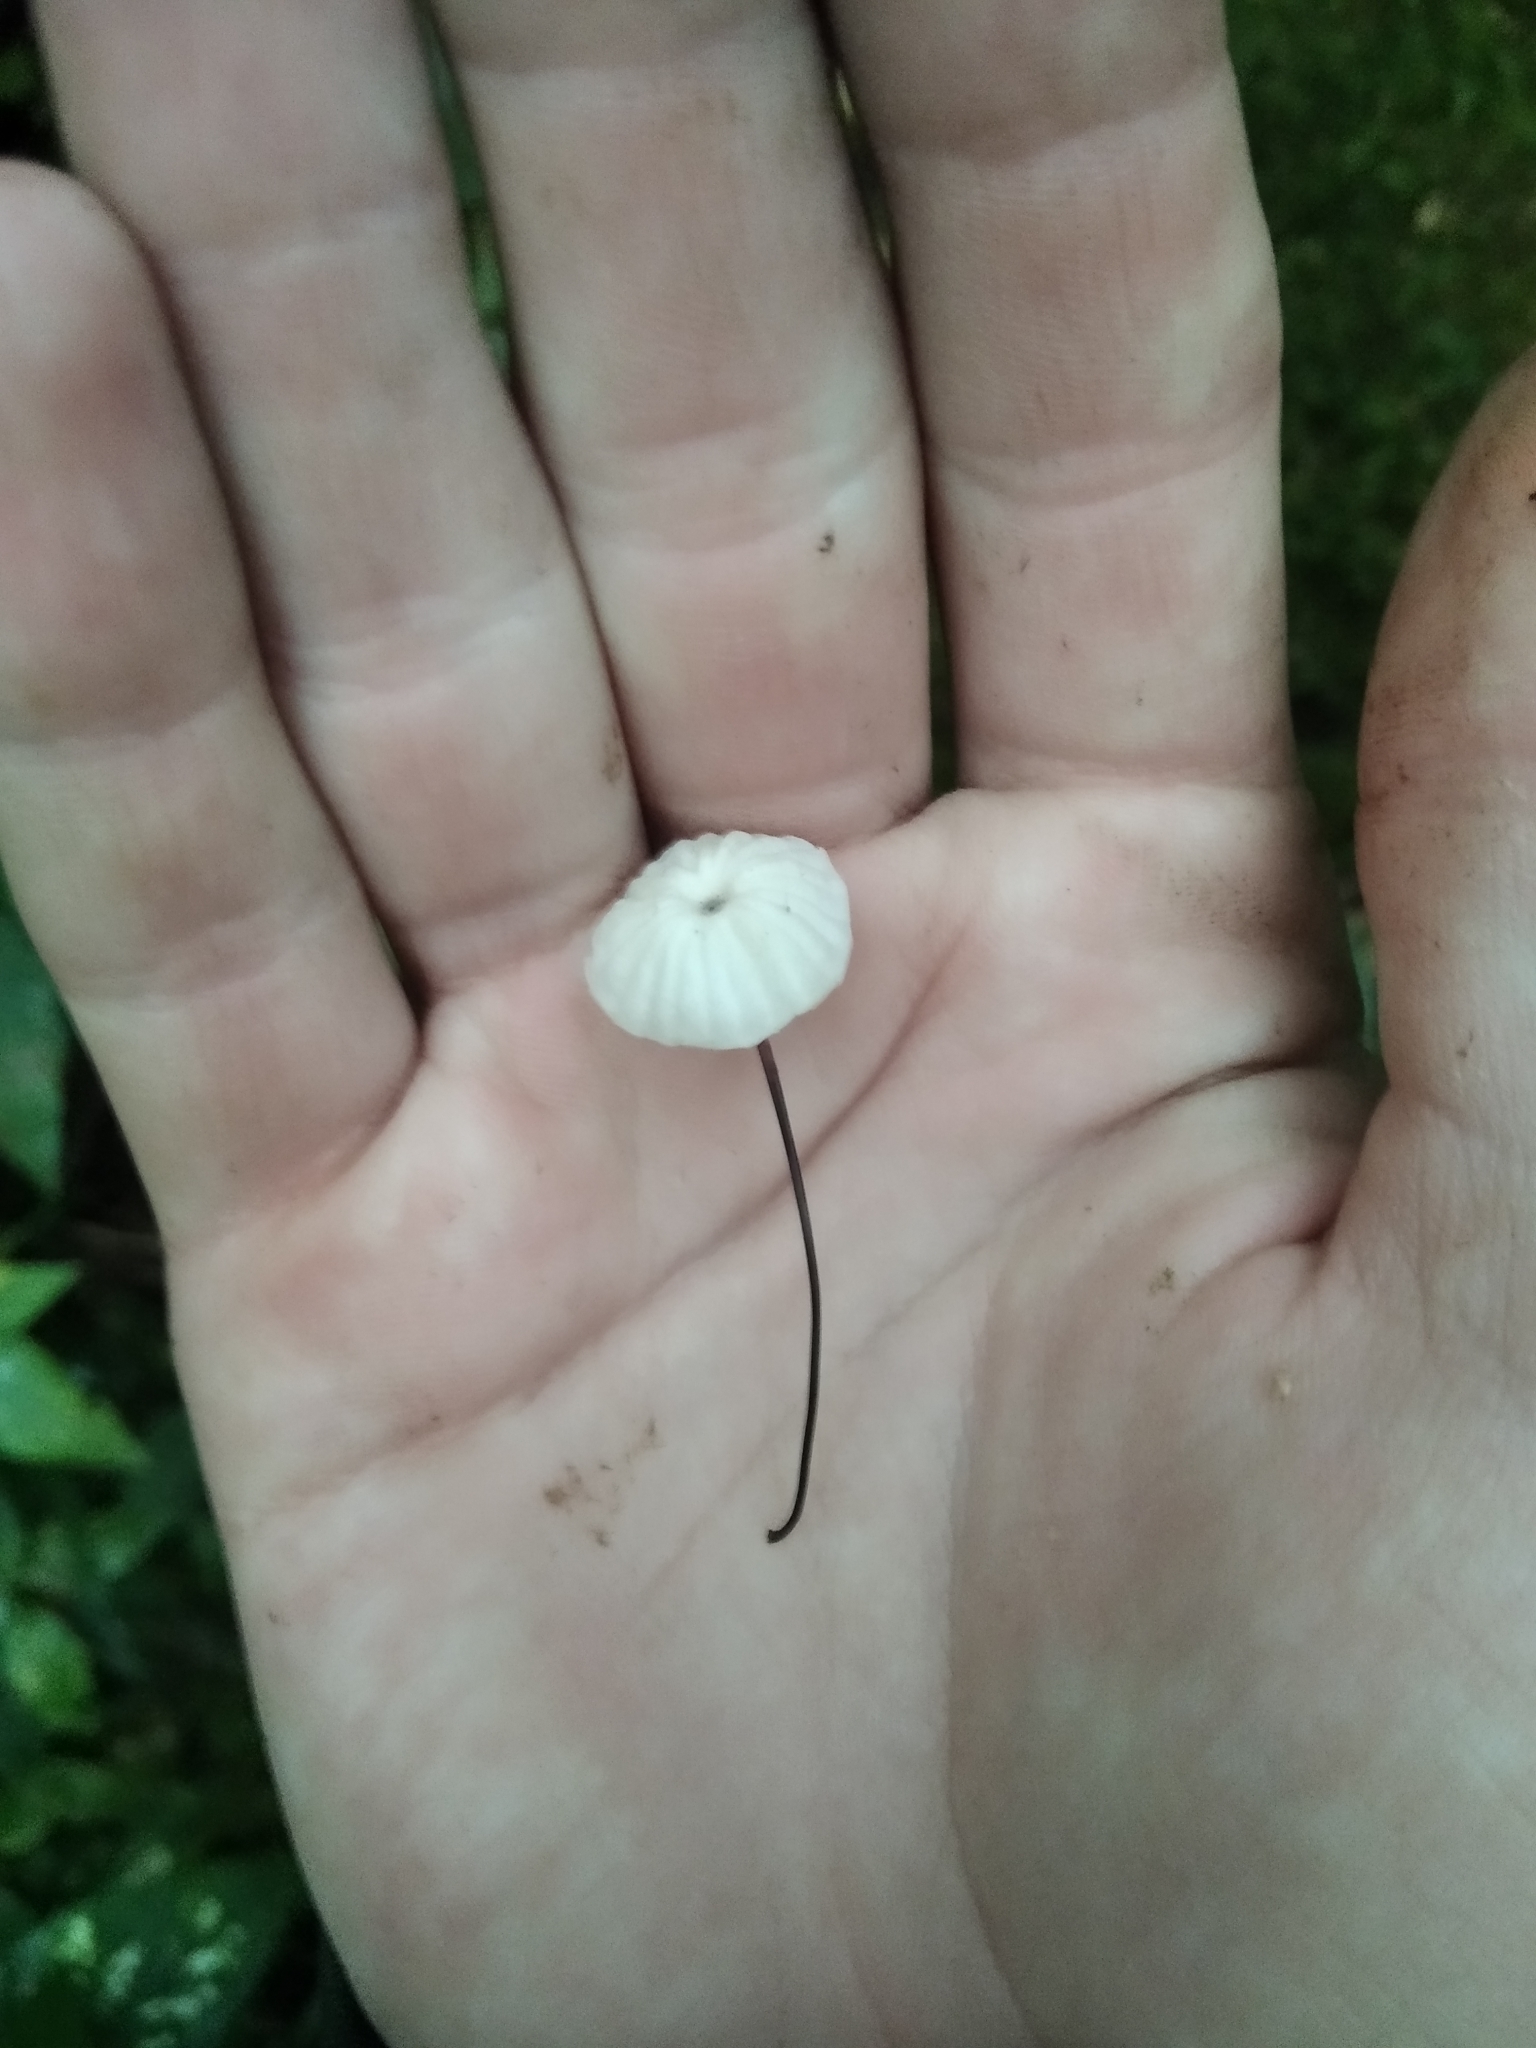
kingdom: Fungi
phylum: Basidiomycota
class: Agaricomycetes
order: Agaricales
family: Marasmiaceae
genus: Marasmius
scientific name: Marasmius rotula
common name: Collared parachute
